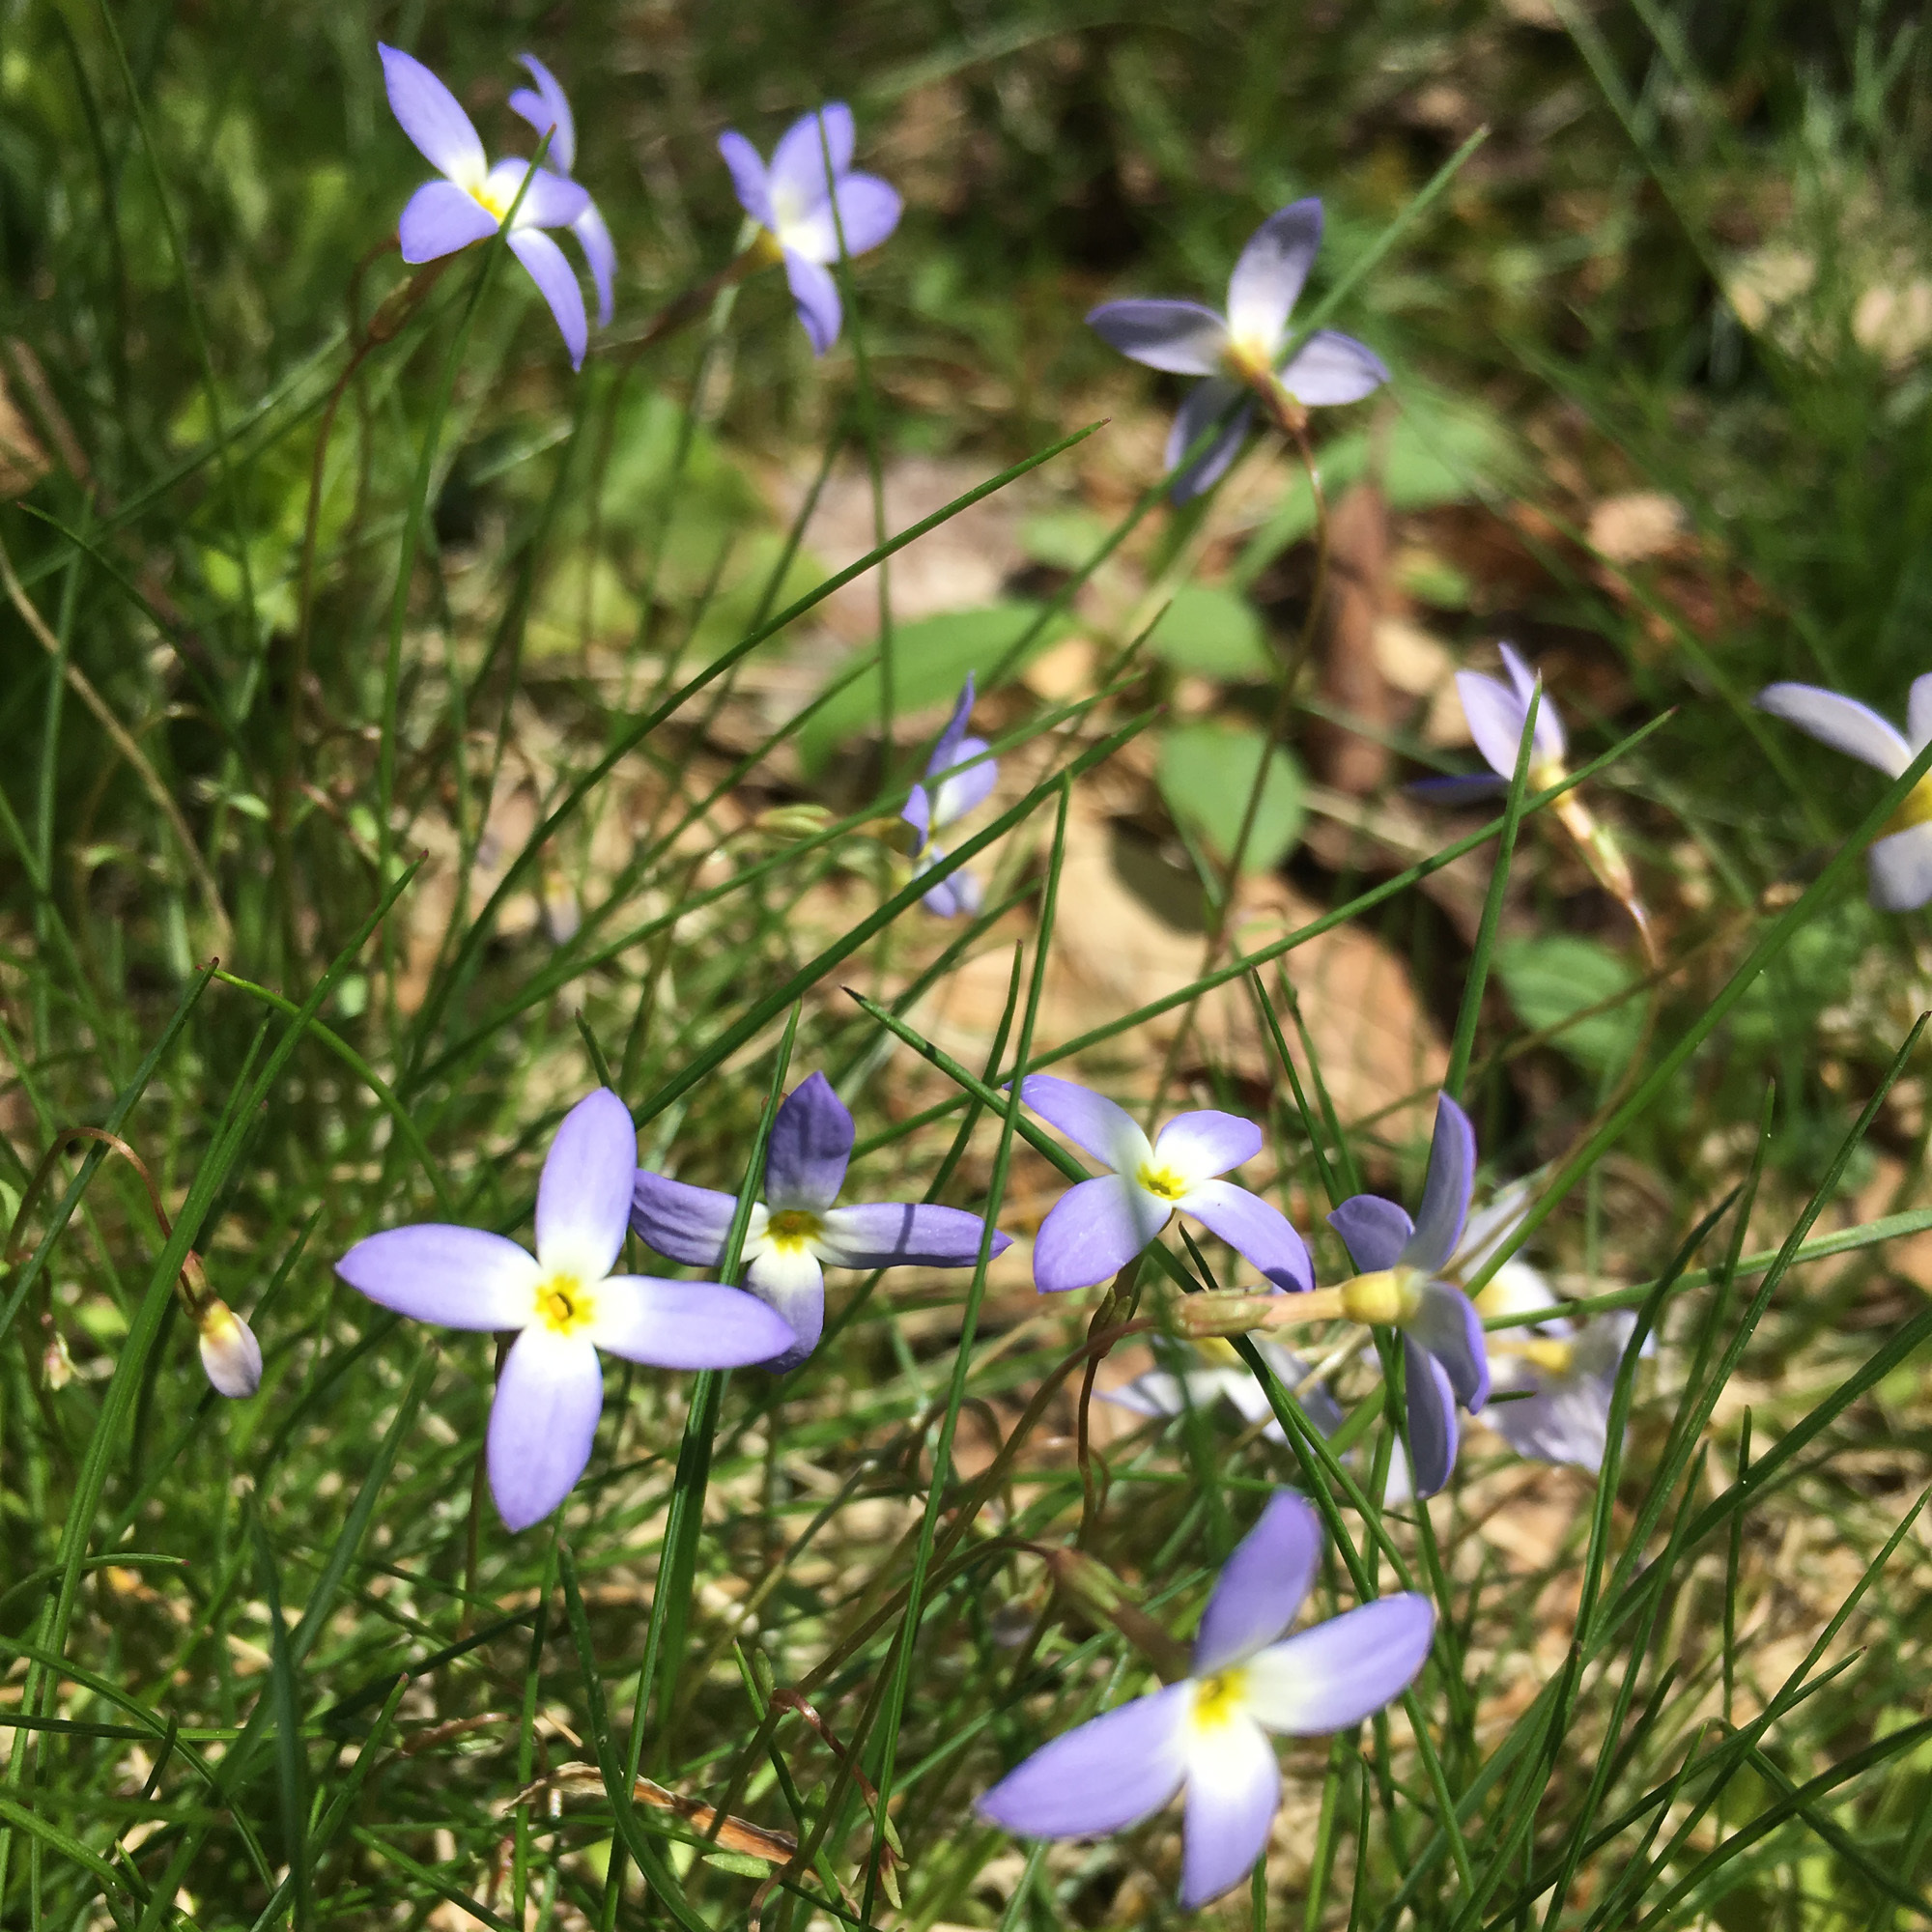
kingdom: Plantae
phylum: Tracheophyta
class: Magnoliopsida
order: Gentianales
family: Rubiaceae
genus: Houstonia
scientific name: Houstonia caerulea
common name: Bluets
